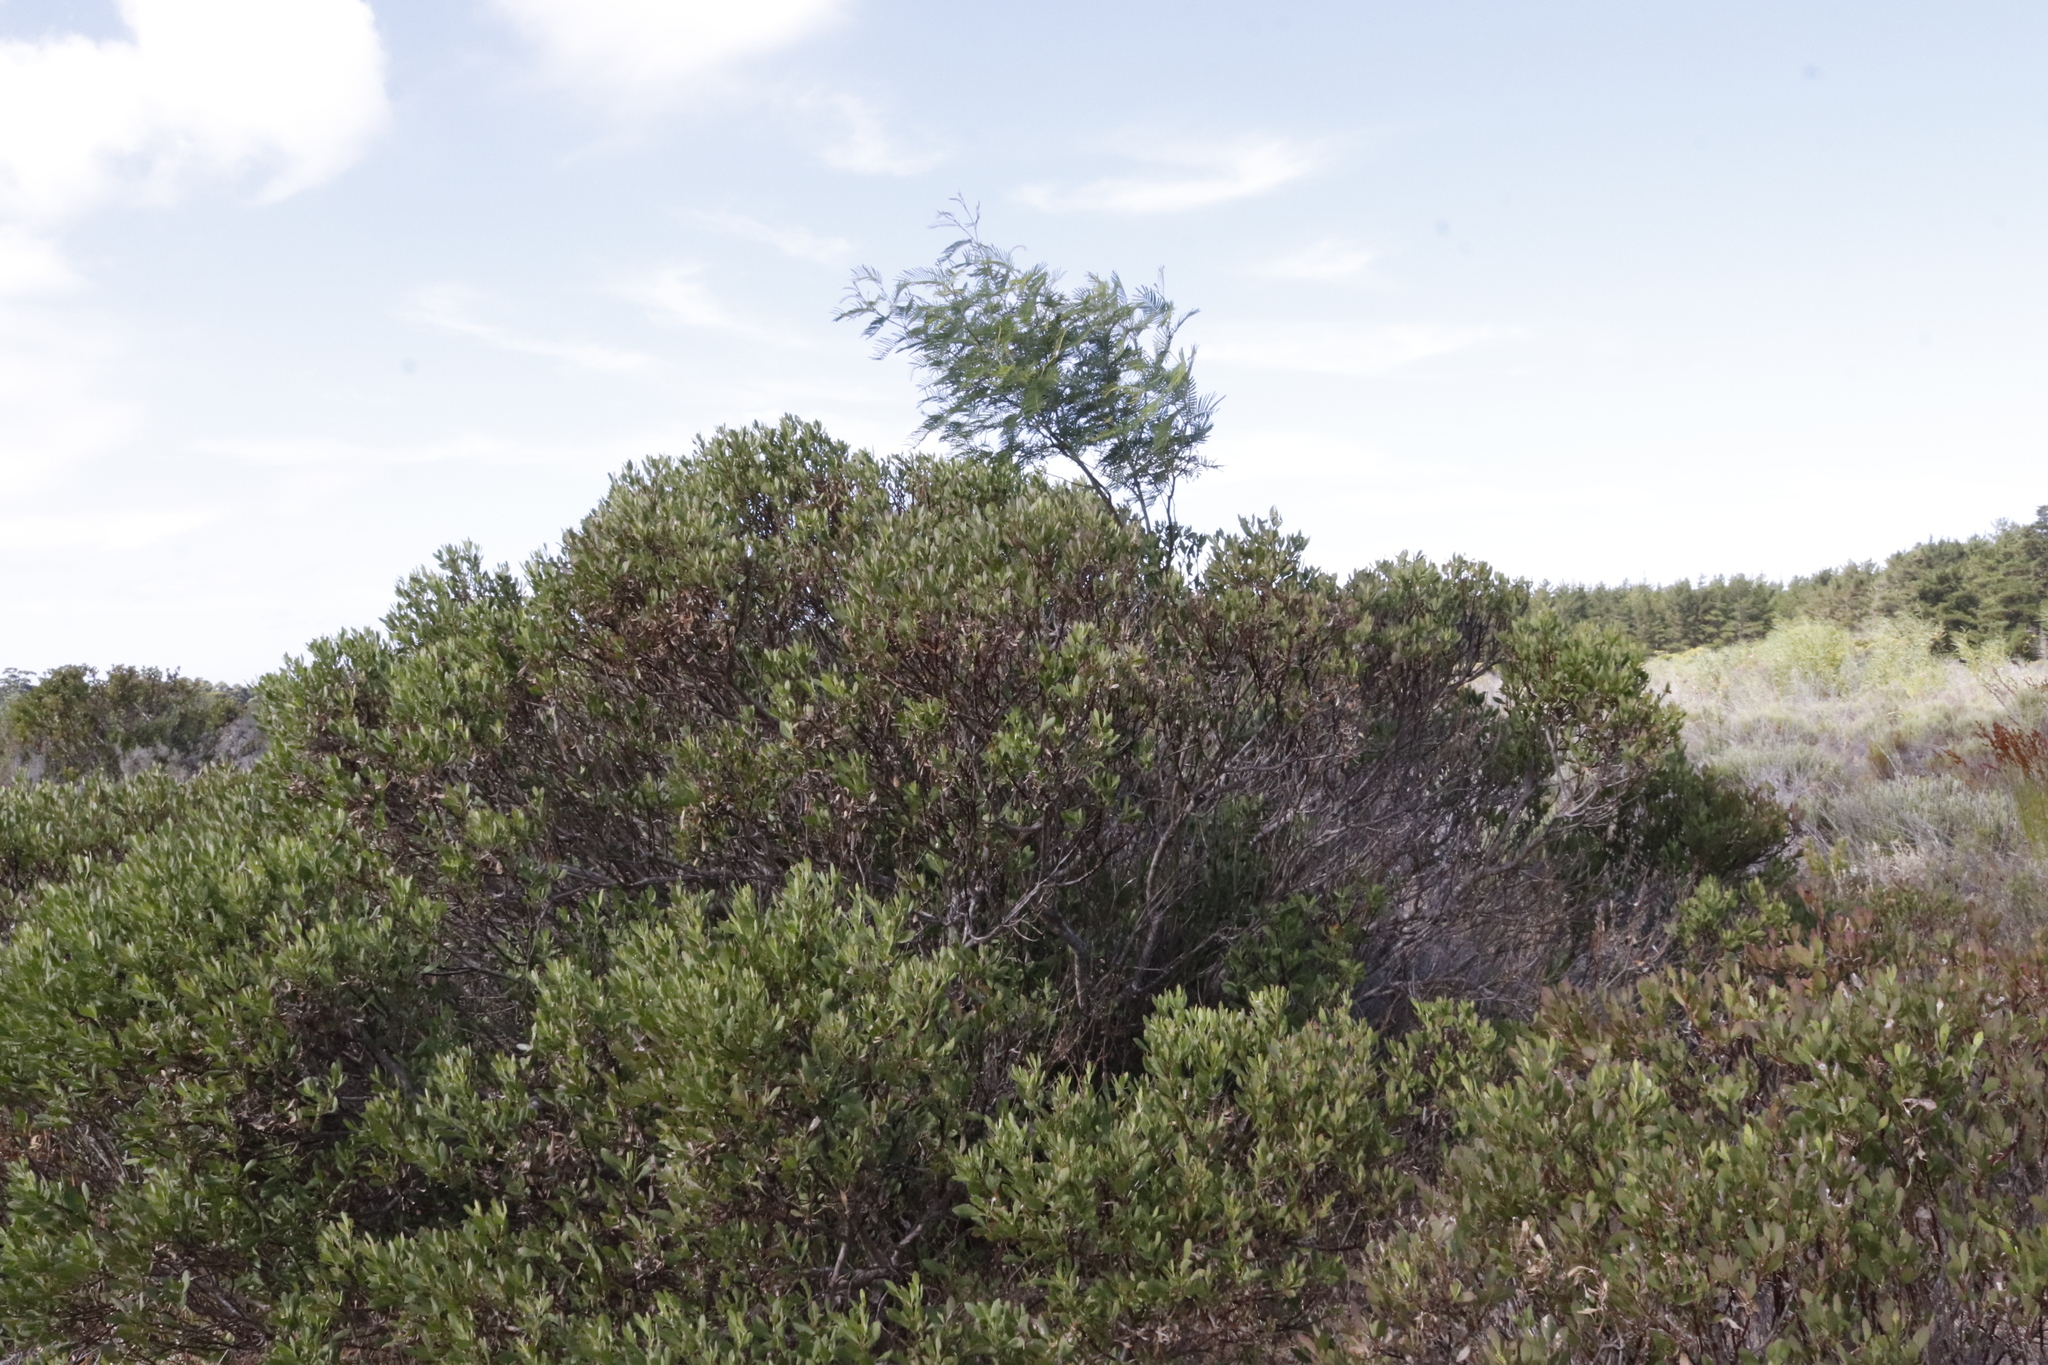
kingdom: Plantae
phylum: Tracheophyta
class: Magnoliopsida
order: Fabales
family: Fabaceae
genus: Acacia
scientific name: Acacia mearnsii
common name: Black wattle
